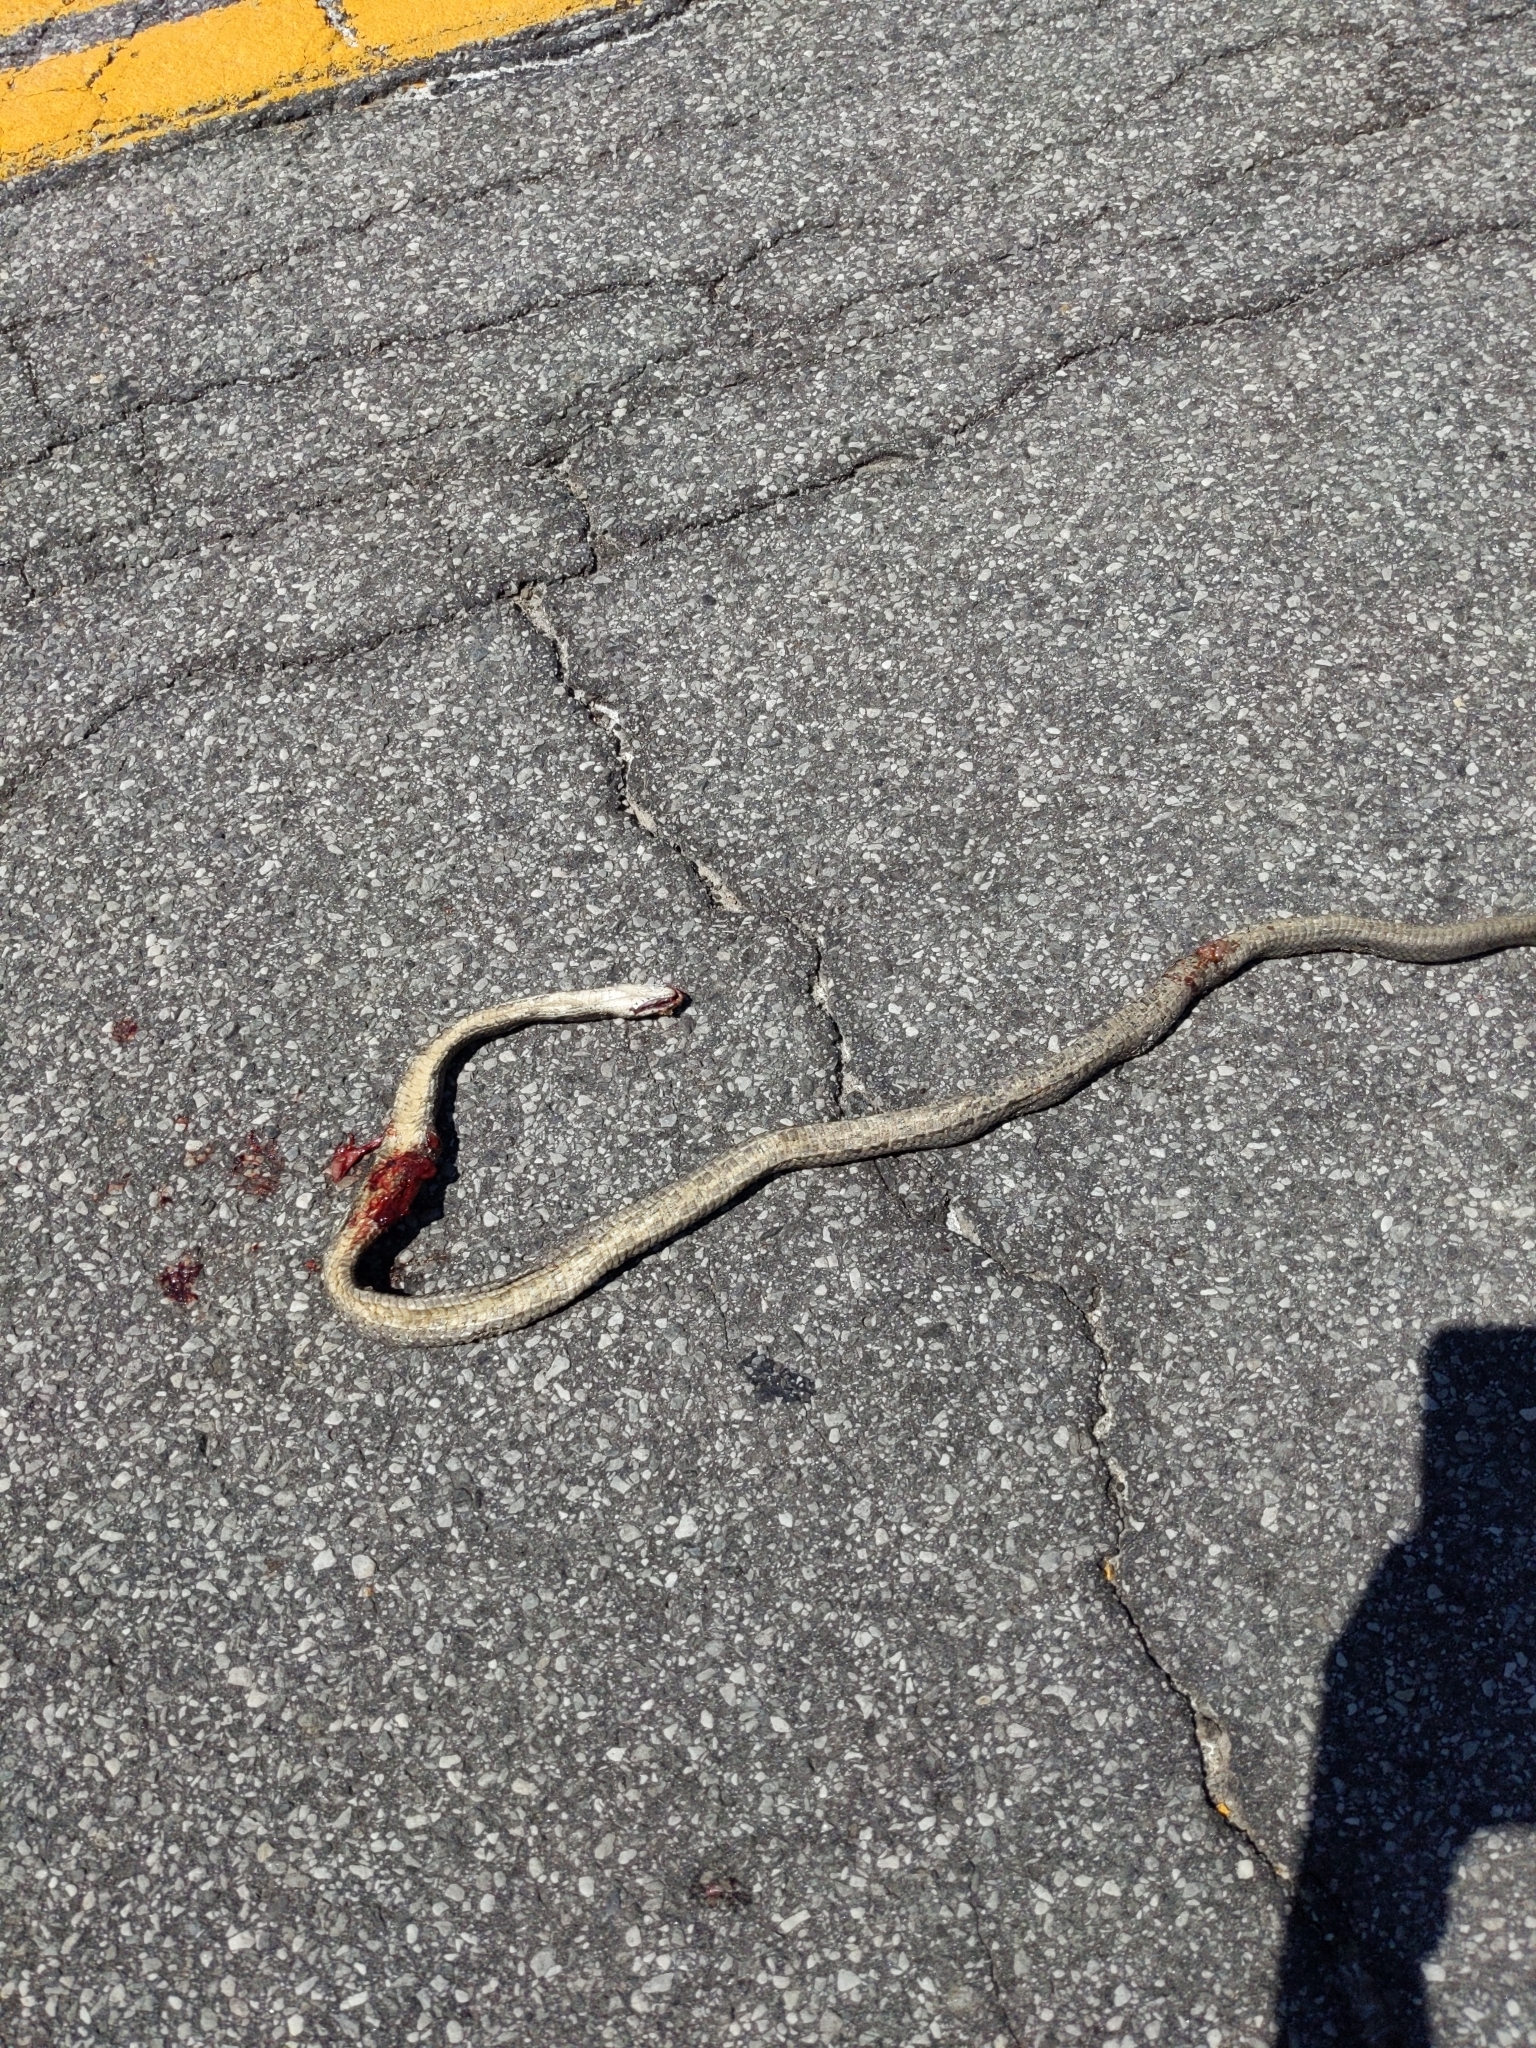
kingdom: Animalia
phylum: Chordata
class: Squamata
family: Colubridae
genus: Pantherophis
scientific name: Pantherophis spiloides
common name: Gray rat snake
